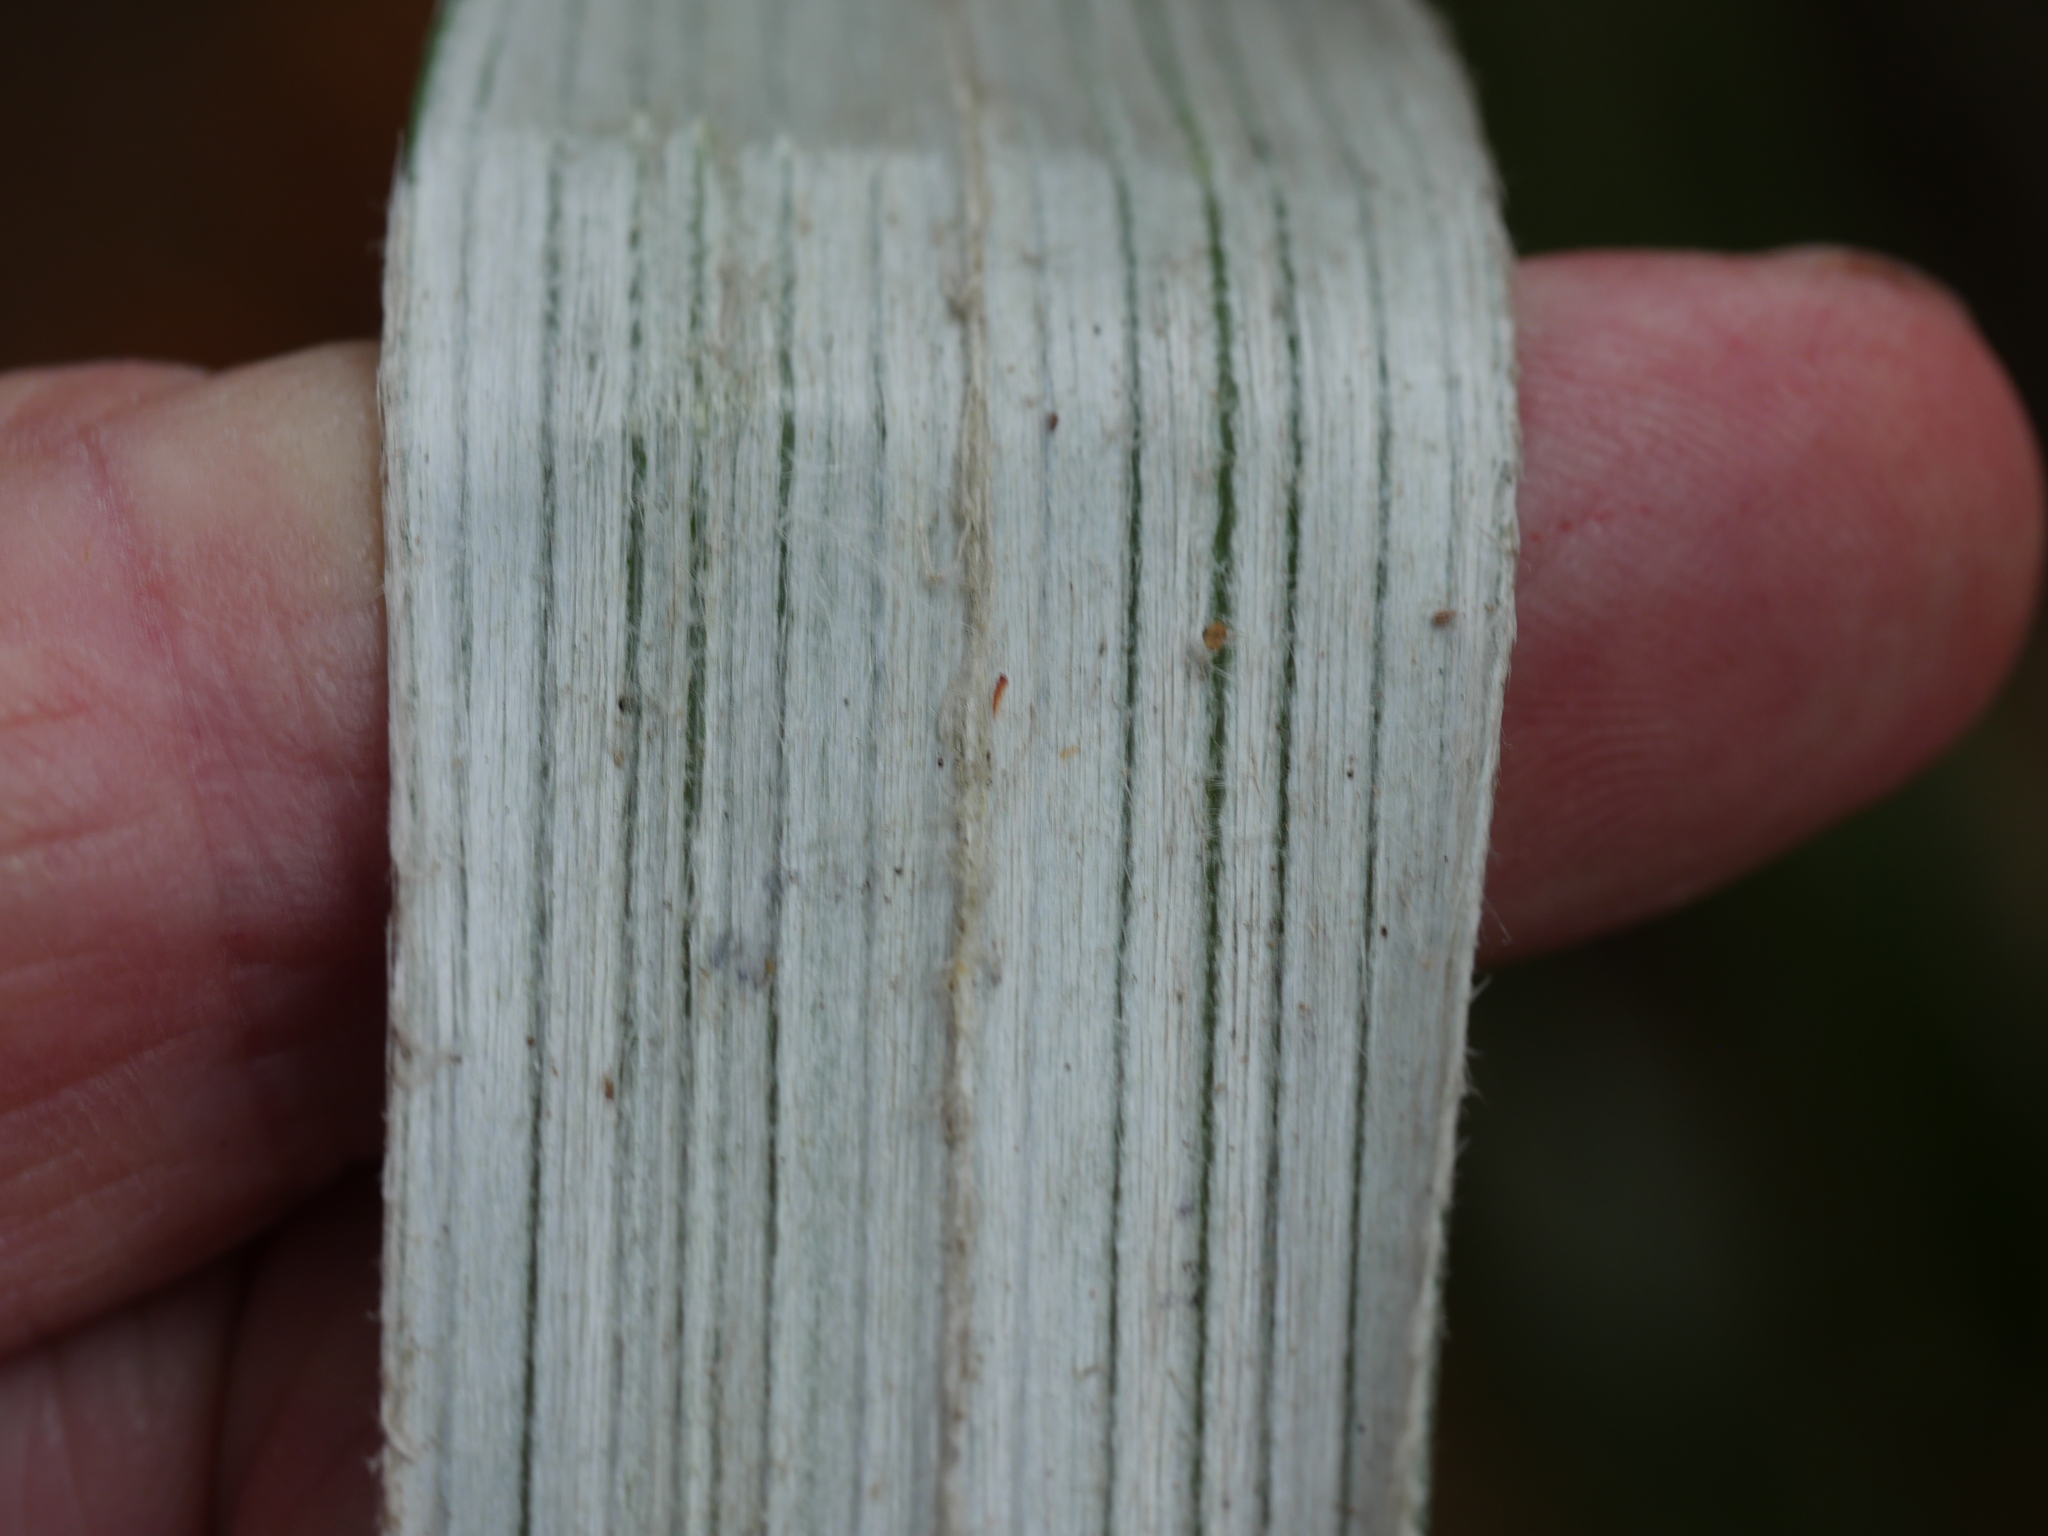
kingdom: Plantae
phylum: Tracheophyta
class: Liliopsida
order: Asparagales
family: Asteliaceae
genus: Astelia
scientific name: Astelia banksii
